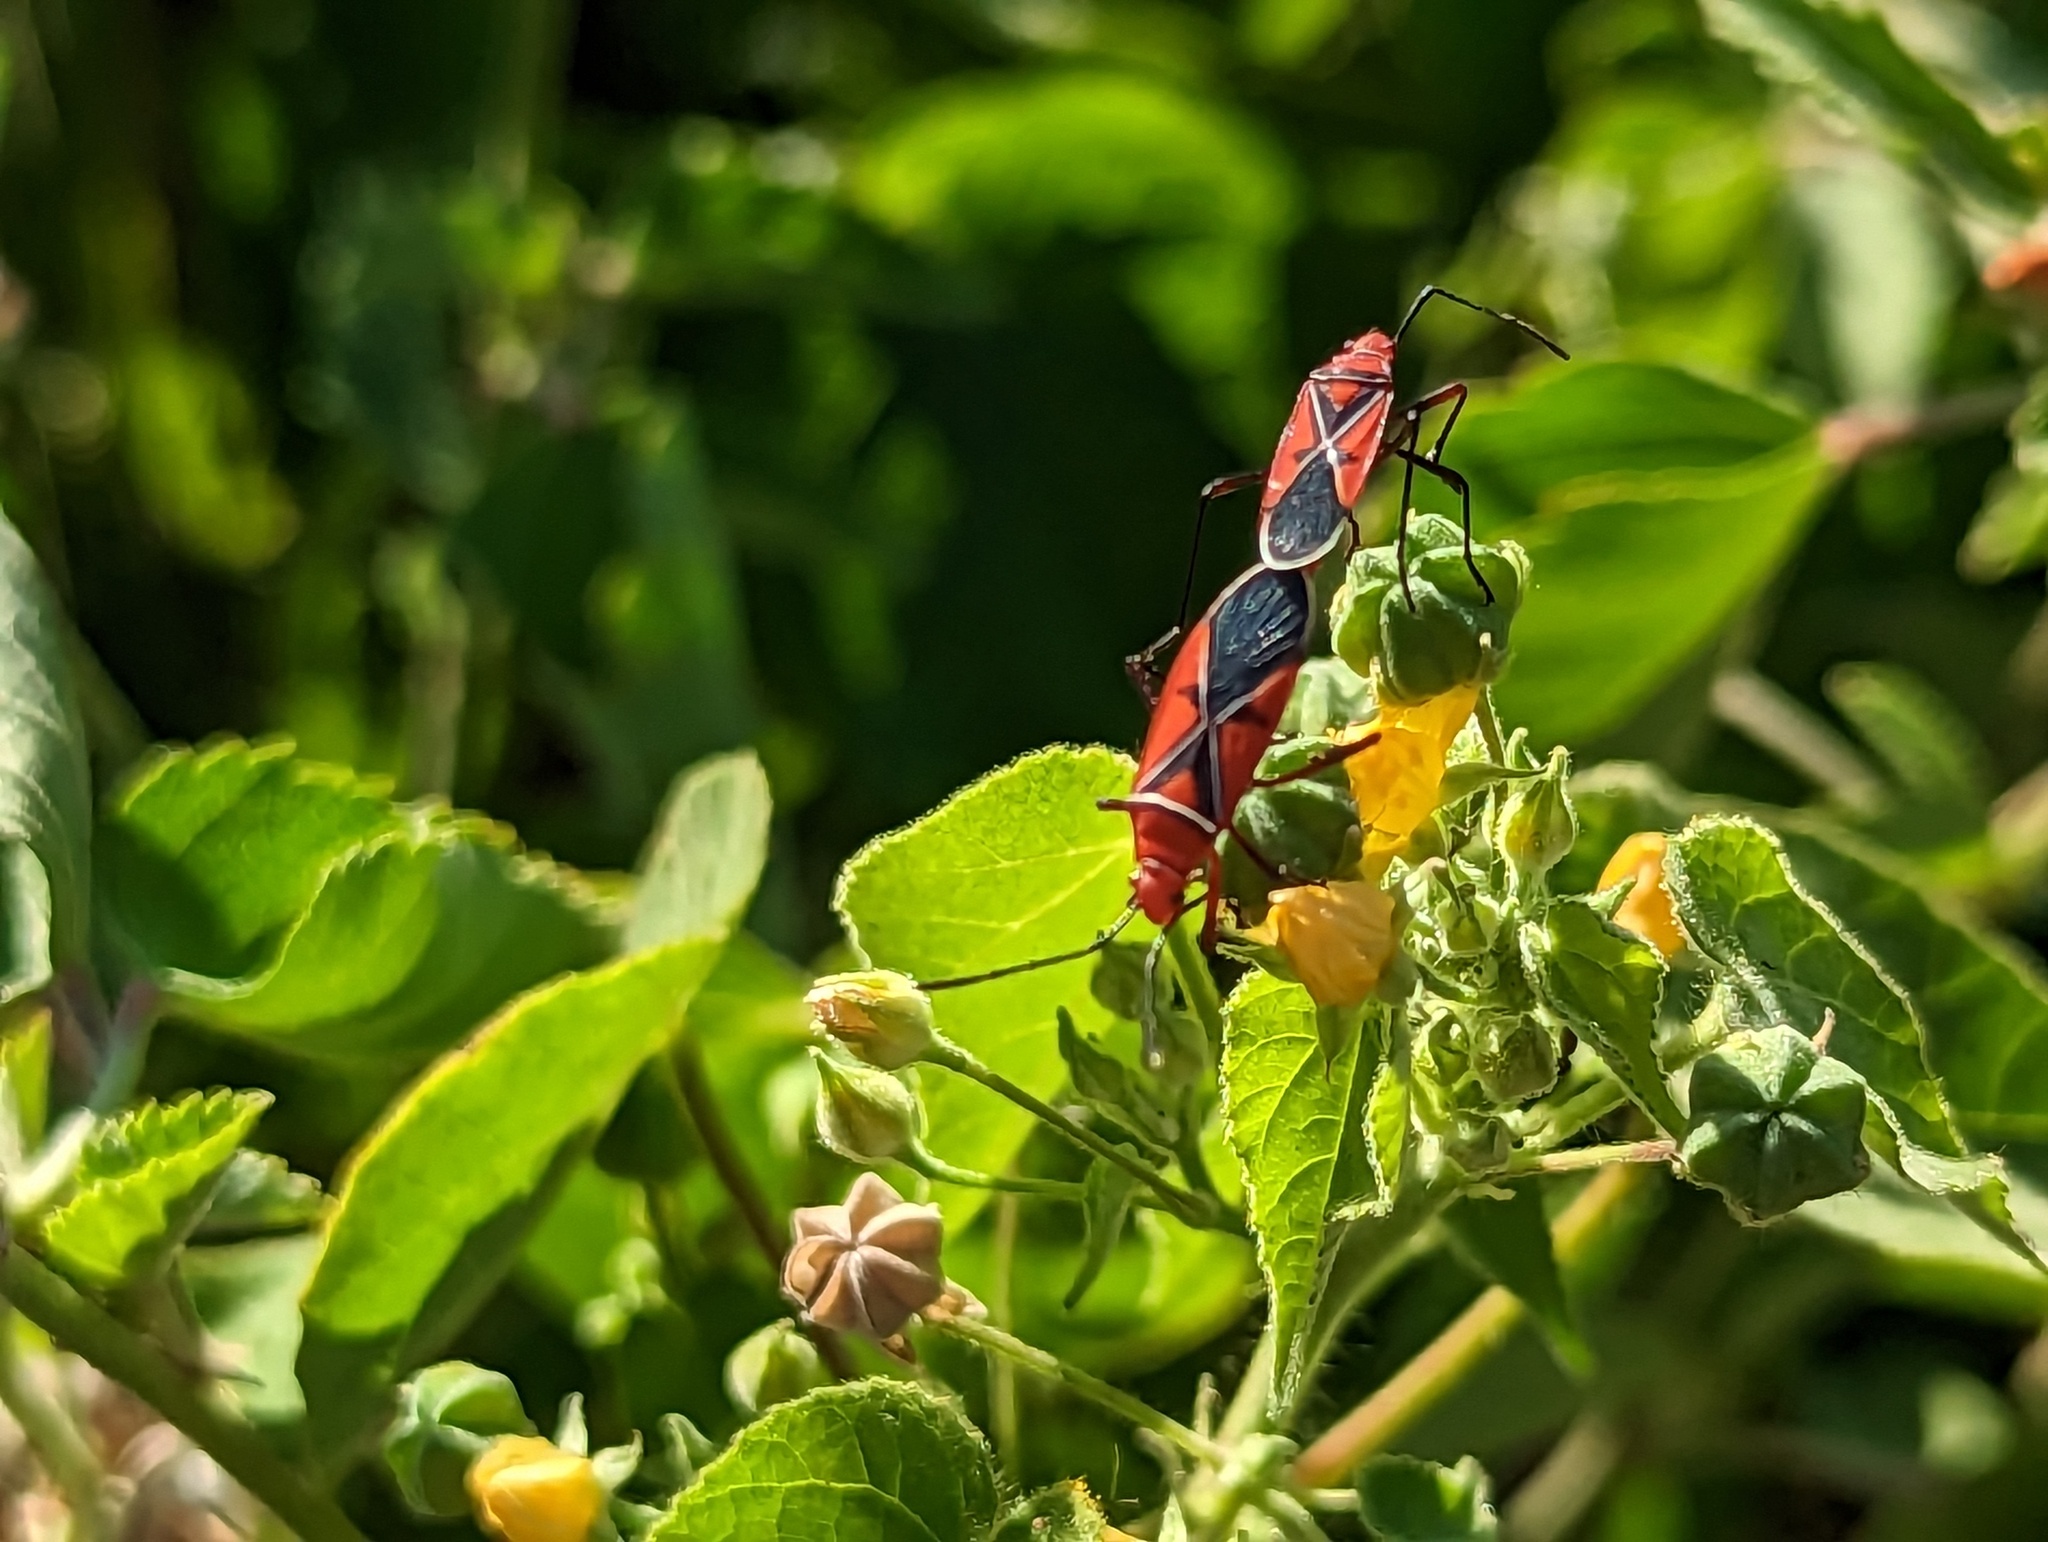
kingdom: Animalia
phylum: Arthropoda
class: Insecta
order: Hemiptera
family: Pyrrhocoridae
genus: Dysdercus
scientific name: Dysdercus andreae
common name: St. andrew's cotton stainer
